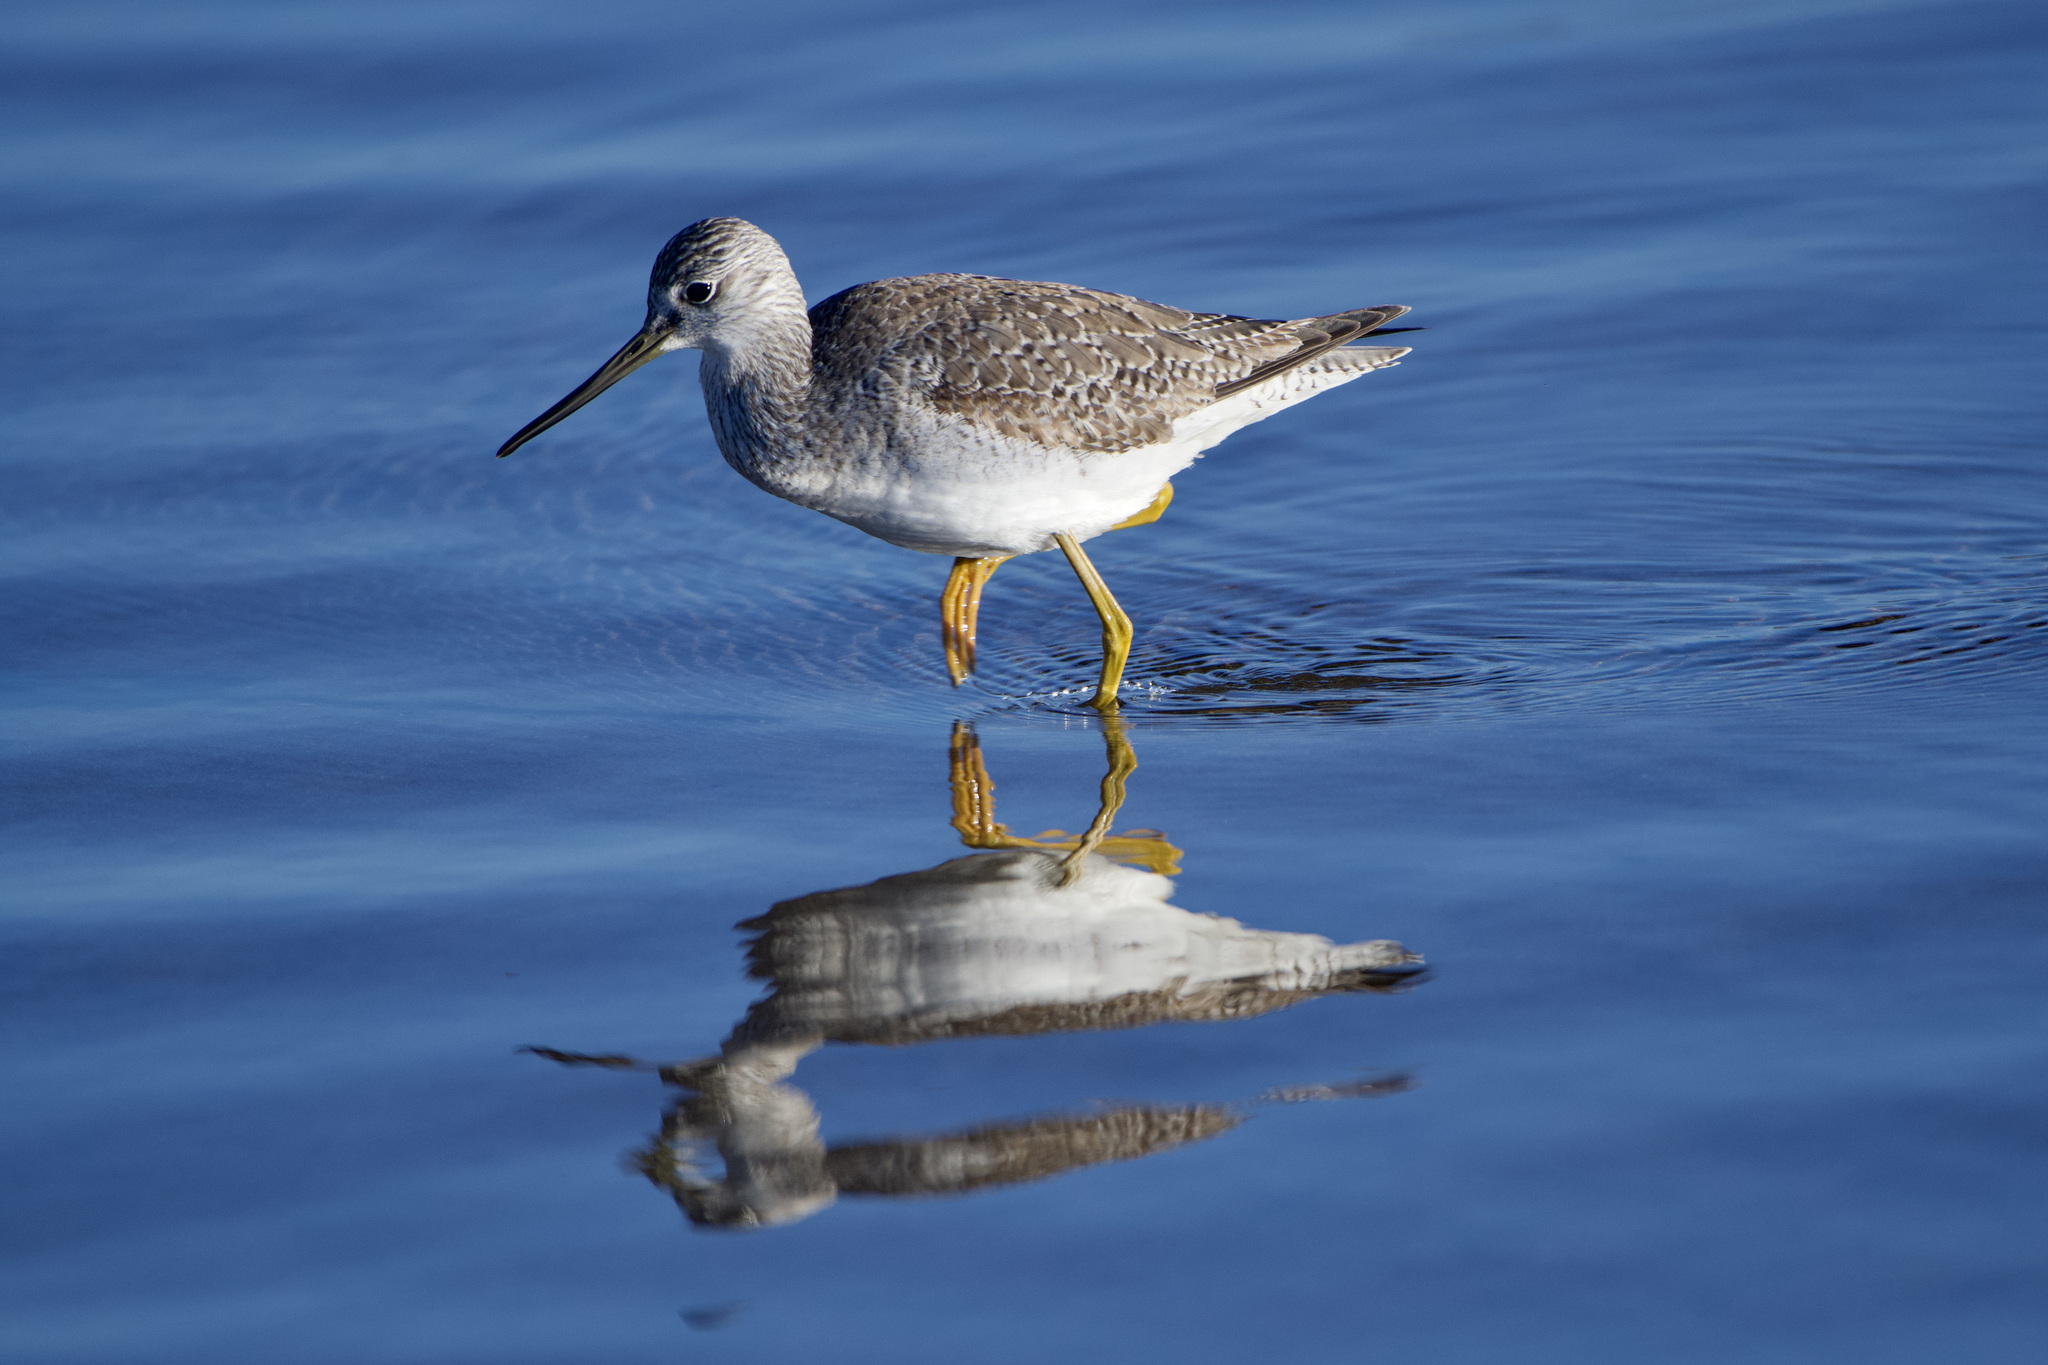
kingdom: Animalia
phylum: Chordata
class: Aves
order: Charadriiformes
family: Scolopacidae
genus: Tringa
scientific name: Tringa melanoleuca
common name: Greater yellowlegs
